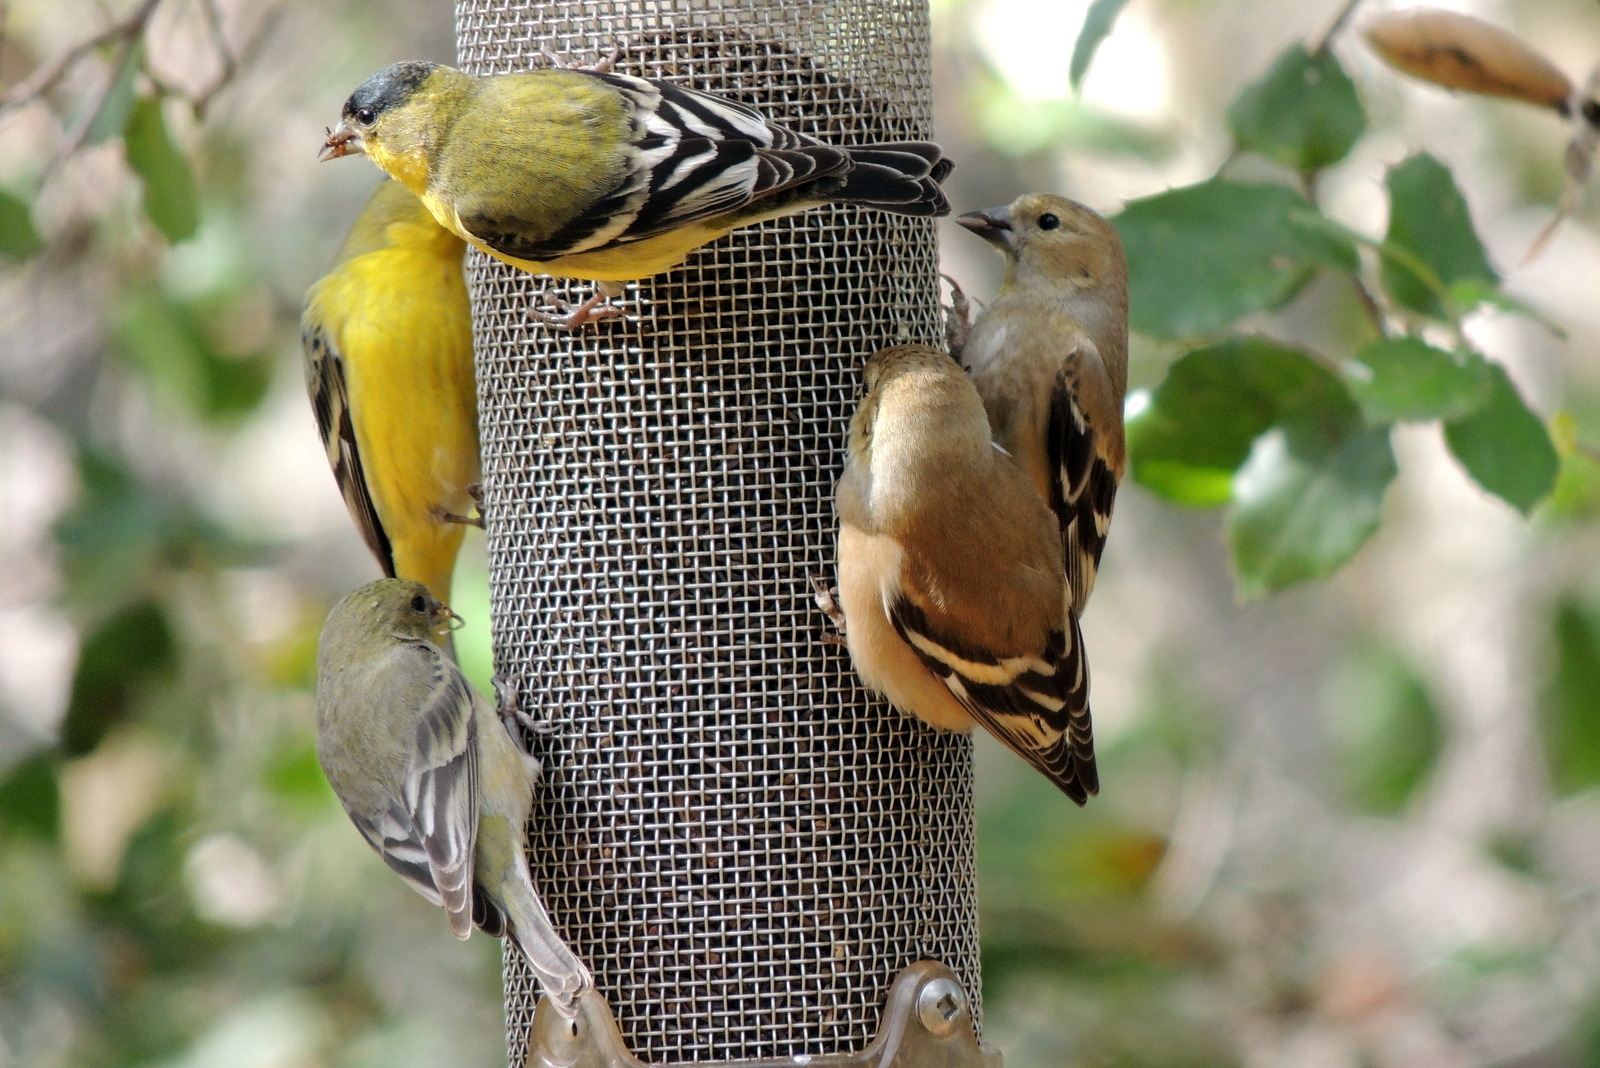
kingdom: Animalia
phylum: Chordata
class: Aves
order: Passeriformes
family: Fringillidae
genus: Spinus
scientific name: Spinus psaltria
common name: Lesser goldfinch
